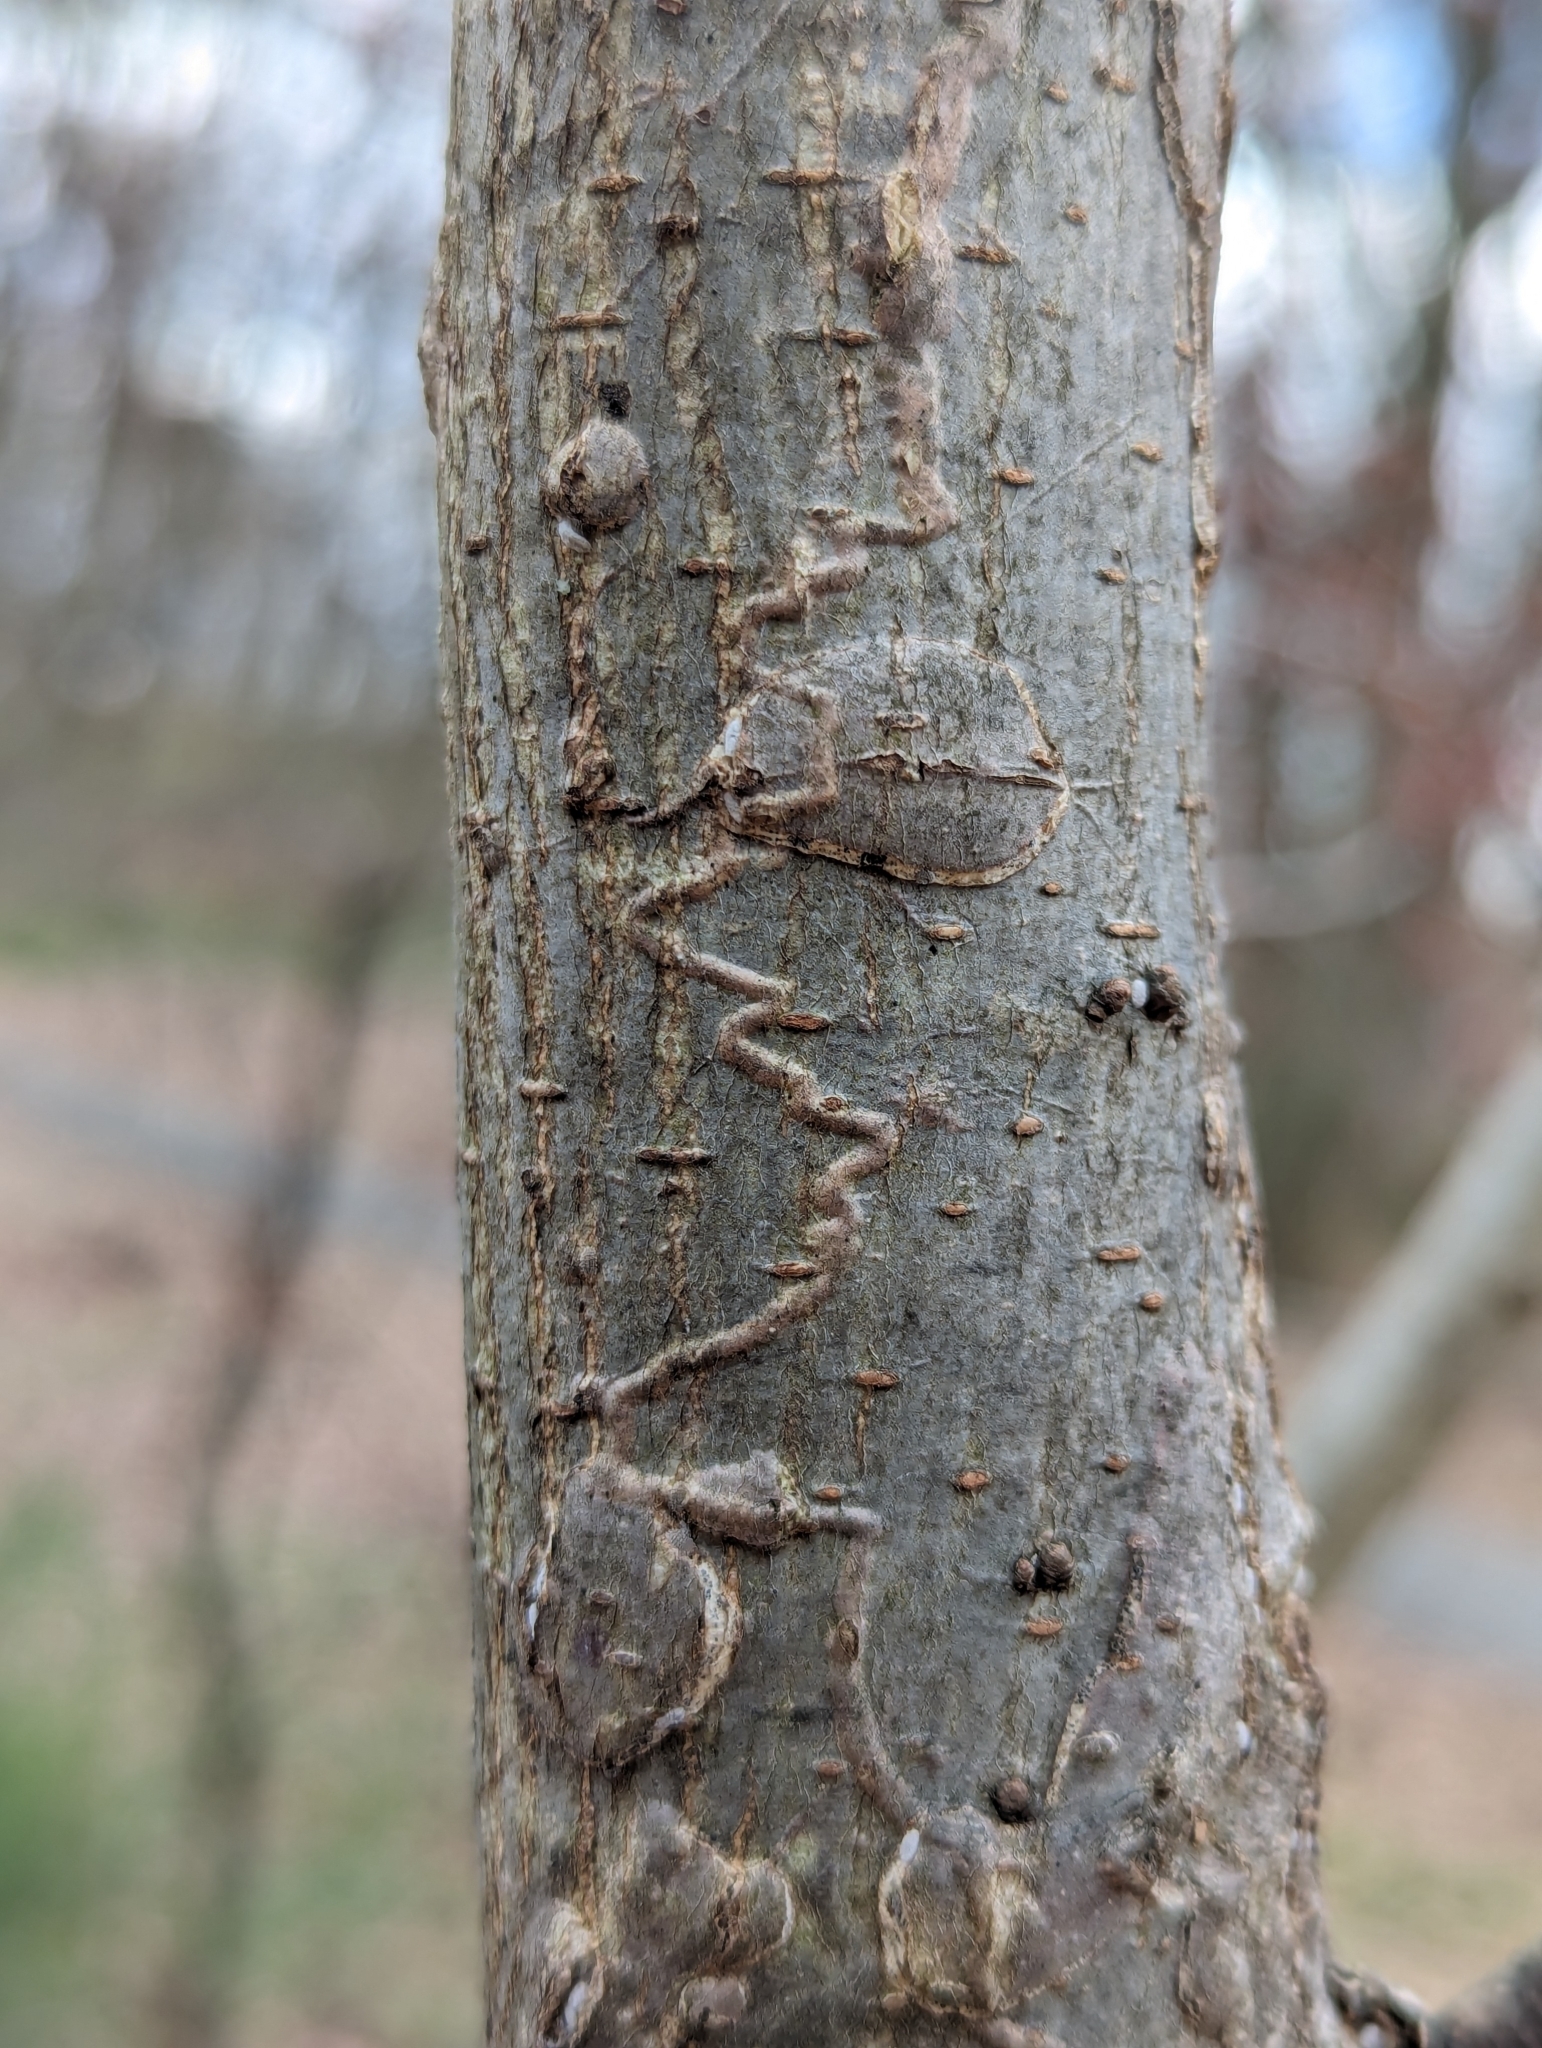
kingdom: Animalia
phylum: Arthropoda
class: Insecta
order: Lepidoptera
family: Gracillariidae
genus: Marmara
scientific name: Marmara
